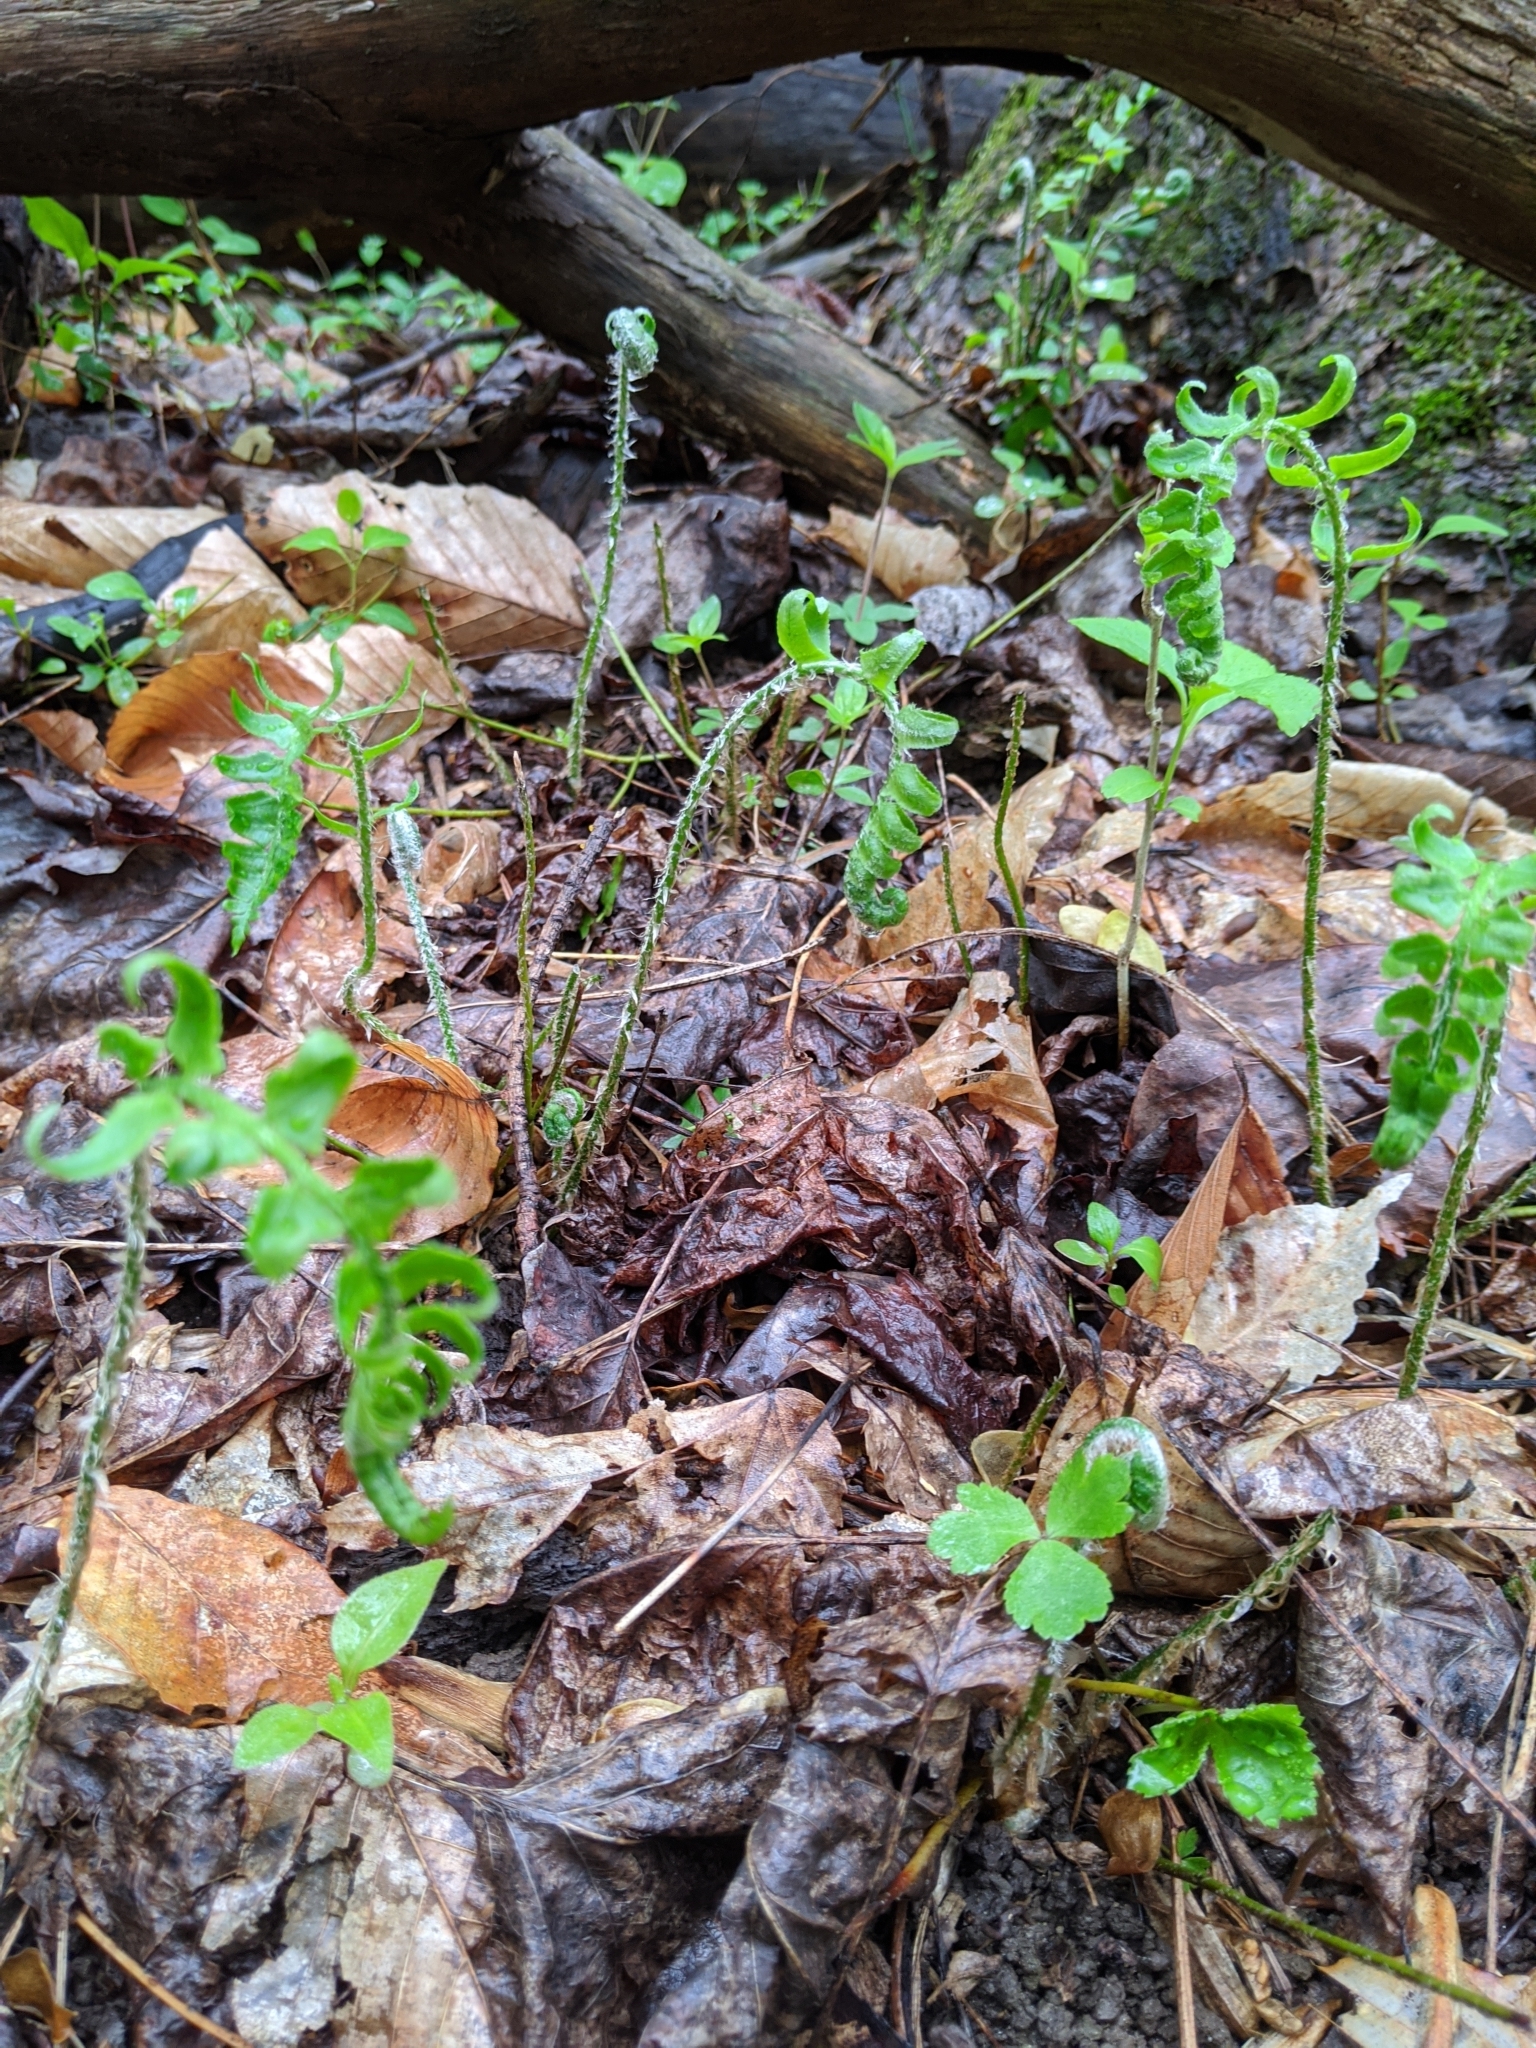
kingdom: Plantae
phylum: Tracheophyta
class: Polypodiopsida
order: Polypodiales
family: Dryopteridaceae
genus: Polystichum
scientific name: Polystichum acrostichoides
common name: Christmas fern
